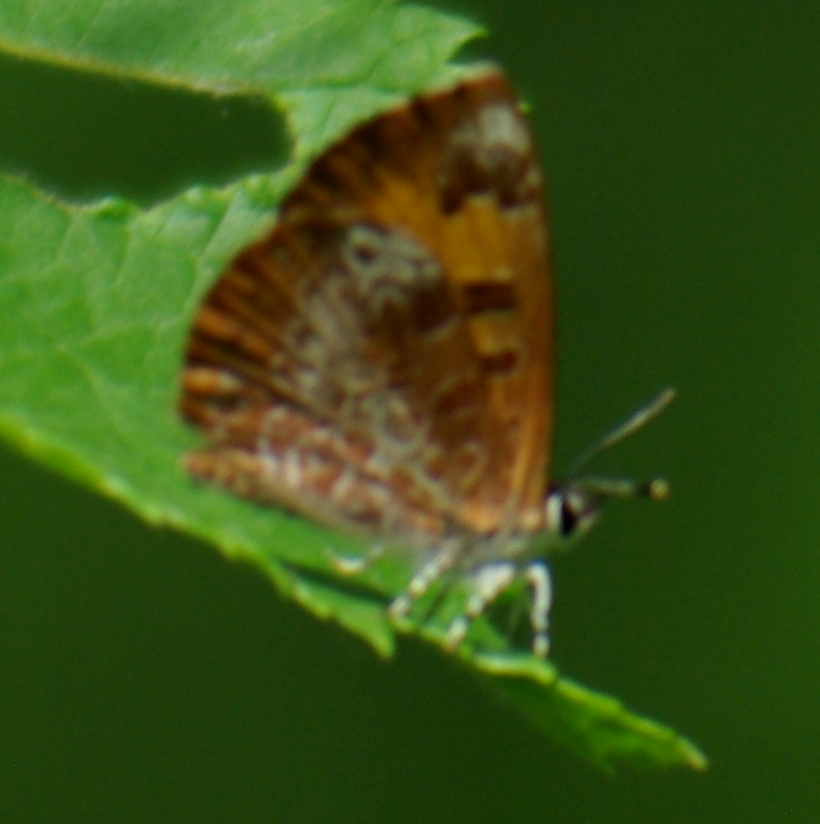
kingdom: Animalia
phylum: Arthropoda
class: Insecta
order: Lepidoptera
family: Lycaenidae
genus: Feniseca
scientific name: Feniseca tarquinius
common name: Harvester
